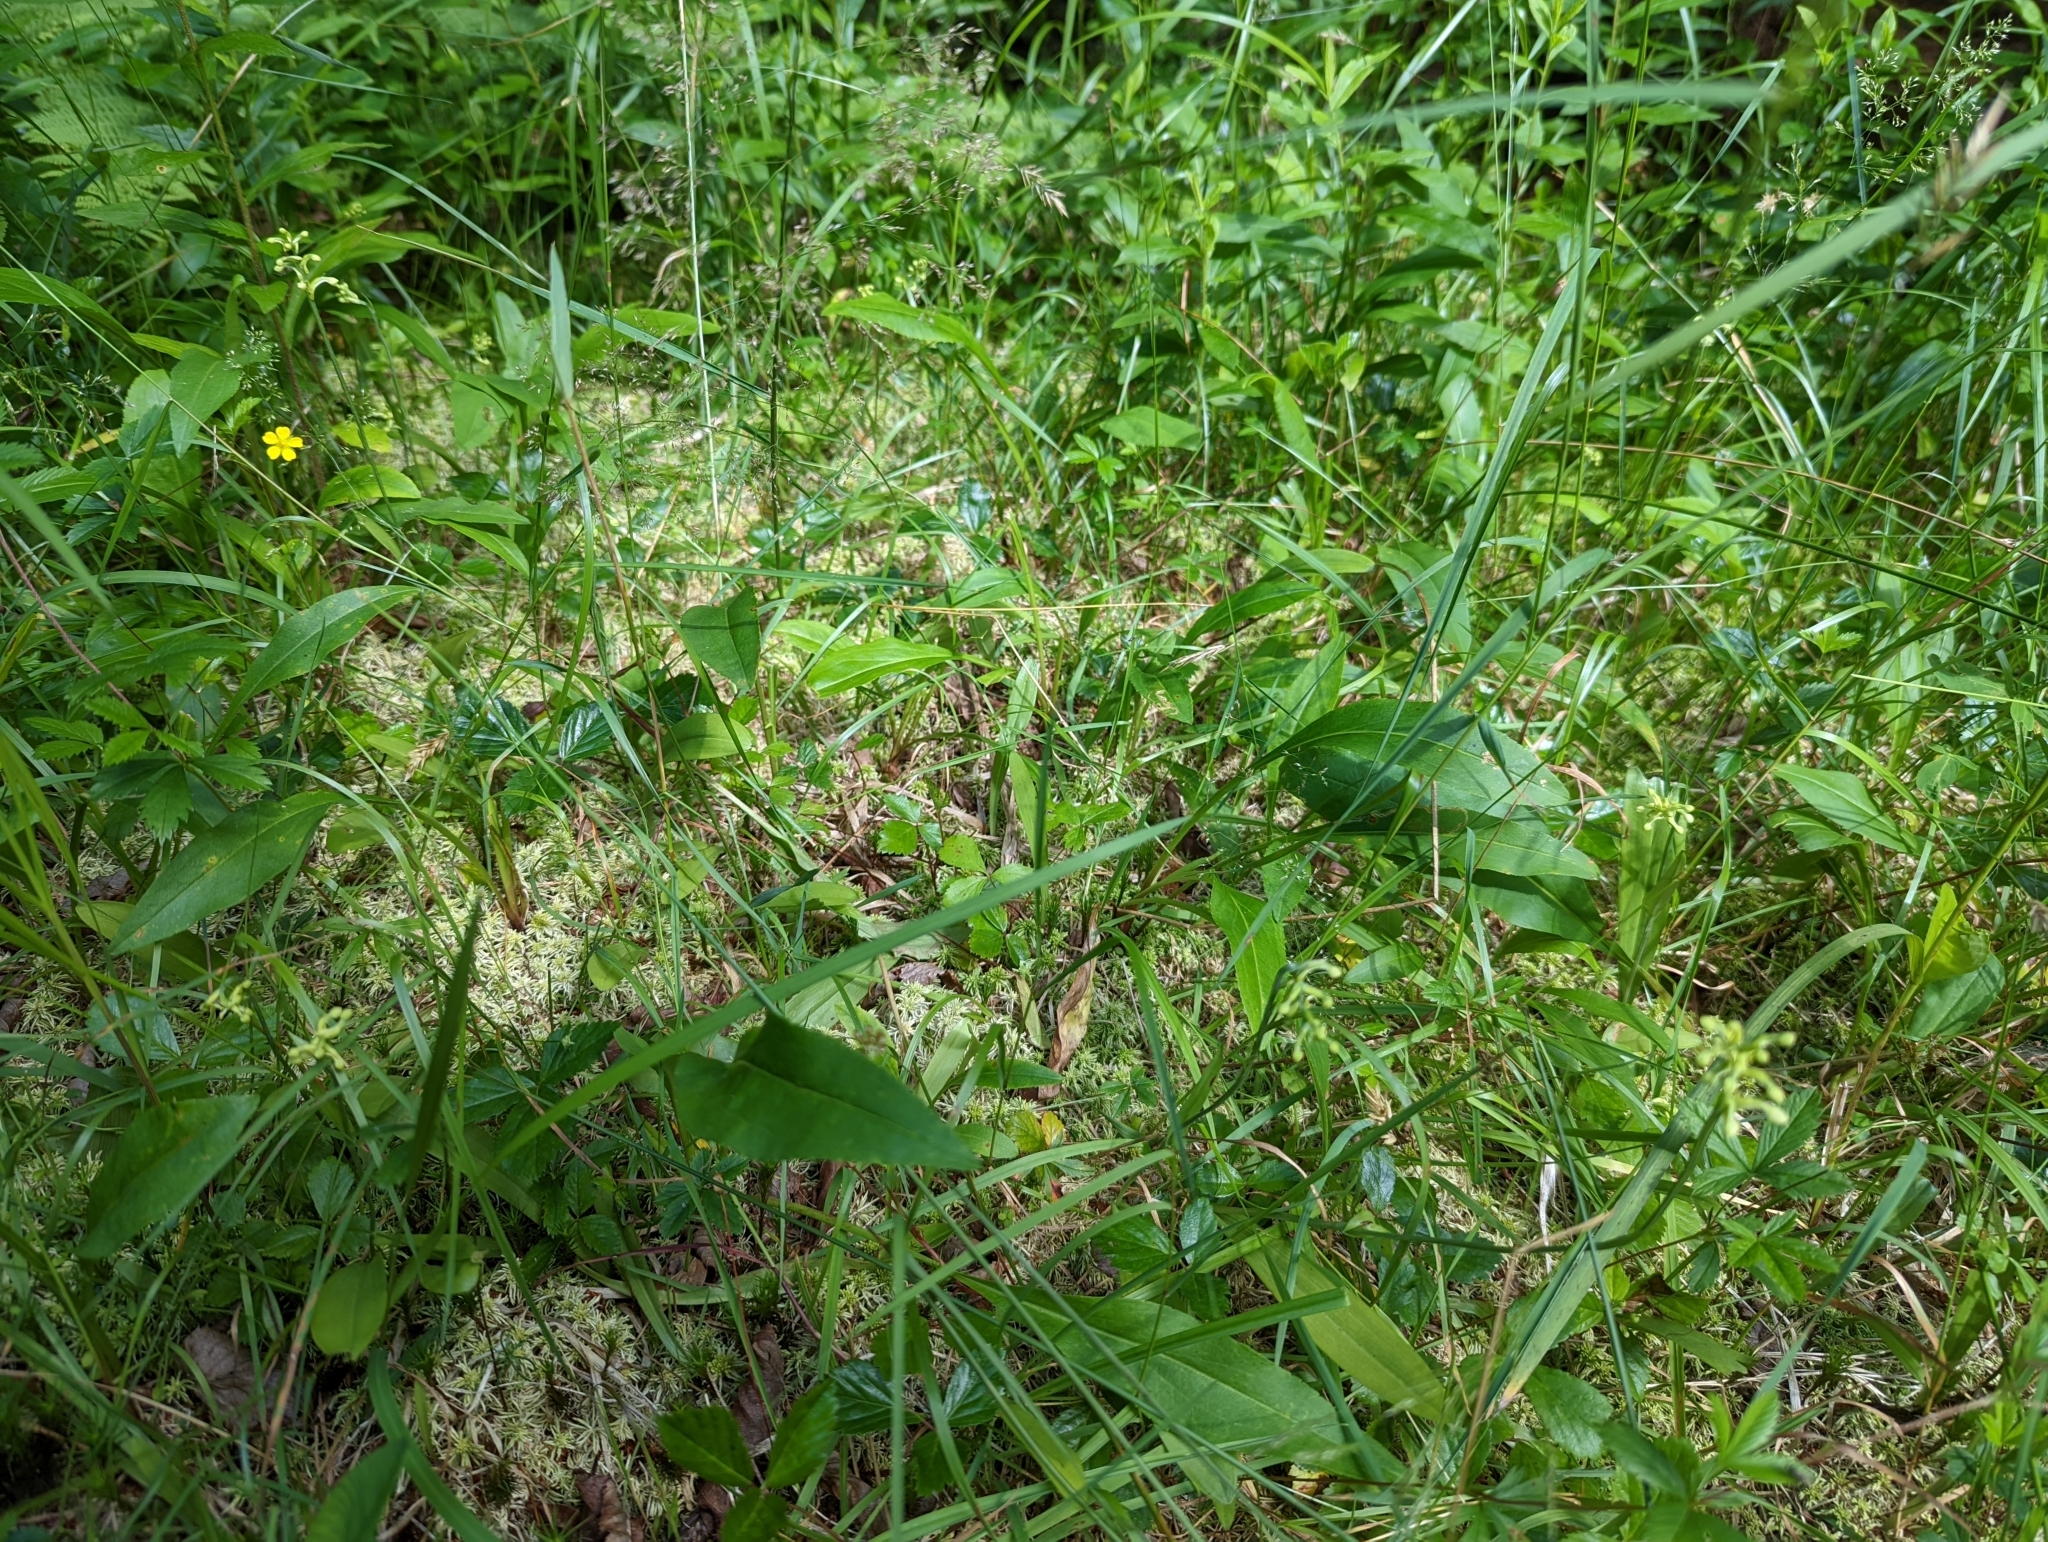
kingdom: Plantae
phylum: Tracheophyta
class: Liliopsida
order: Asparagales
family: Orchidaceae
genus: Platanthera
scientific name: Platanthera clavellata
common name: Club-spur orchid
